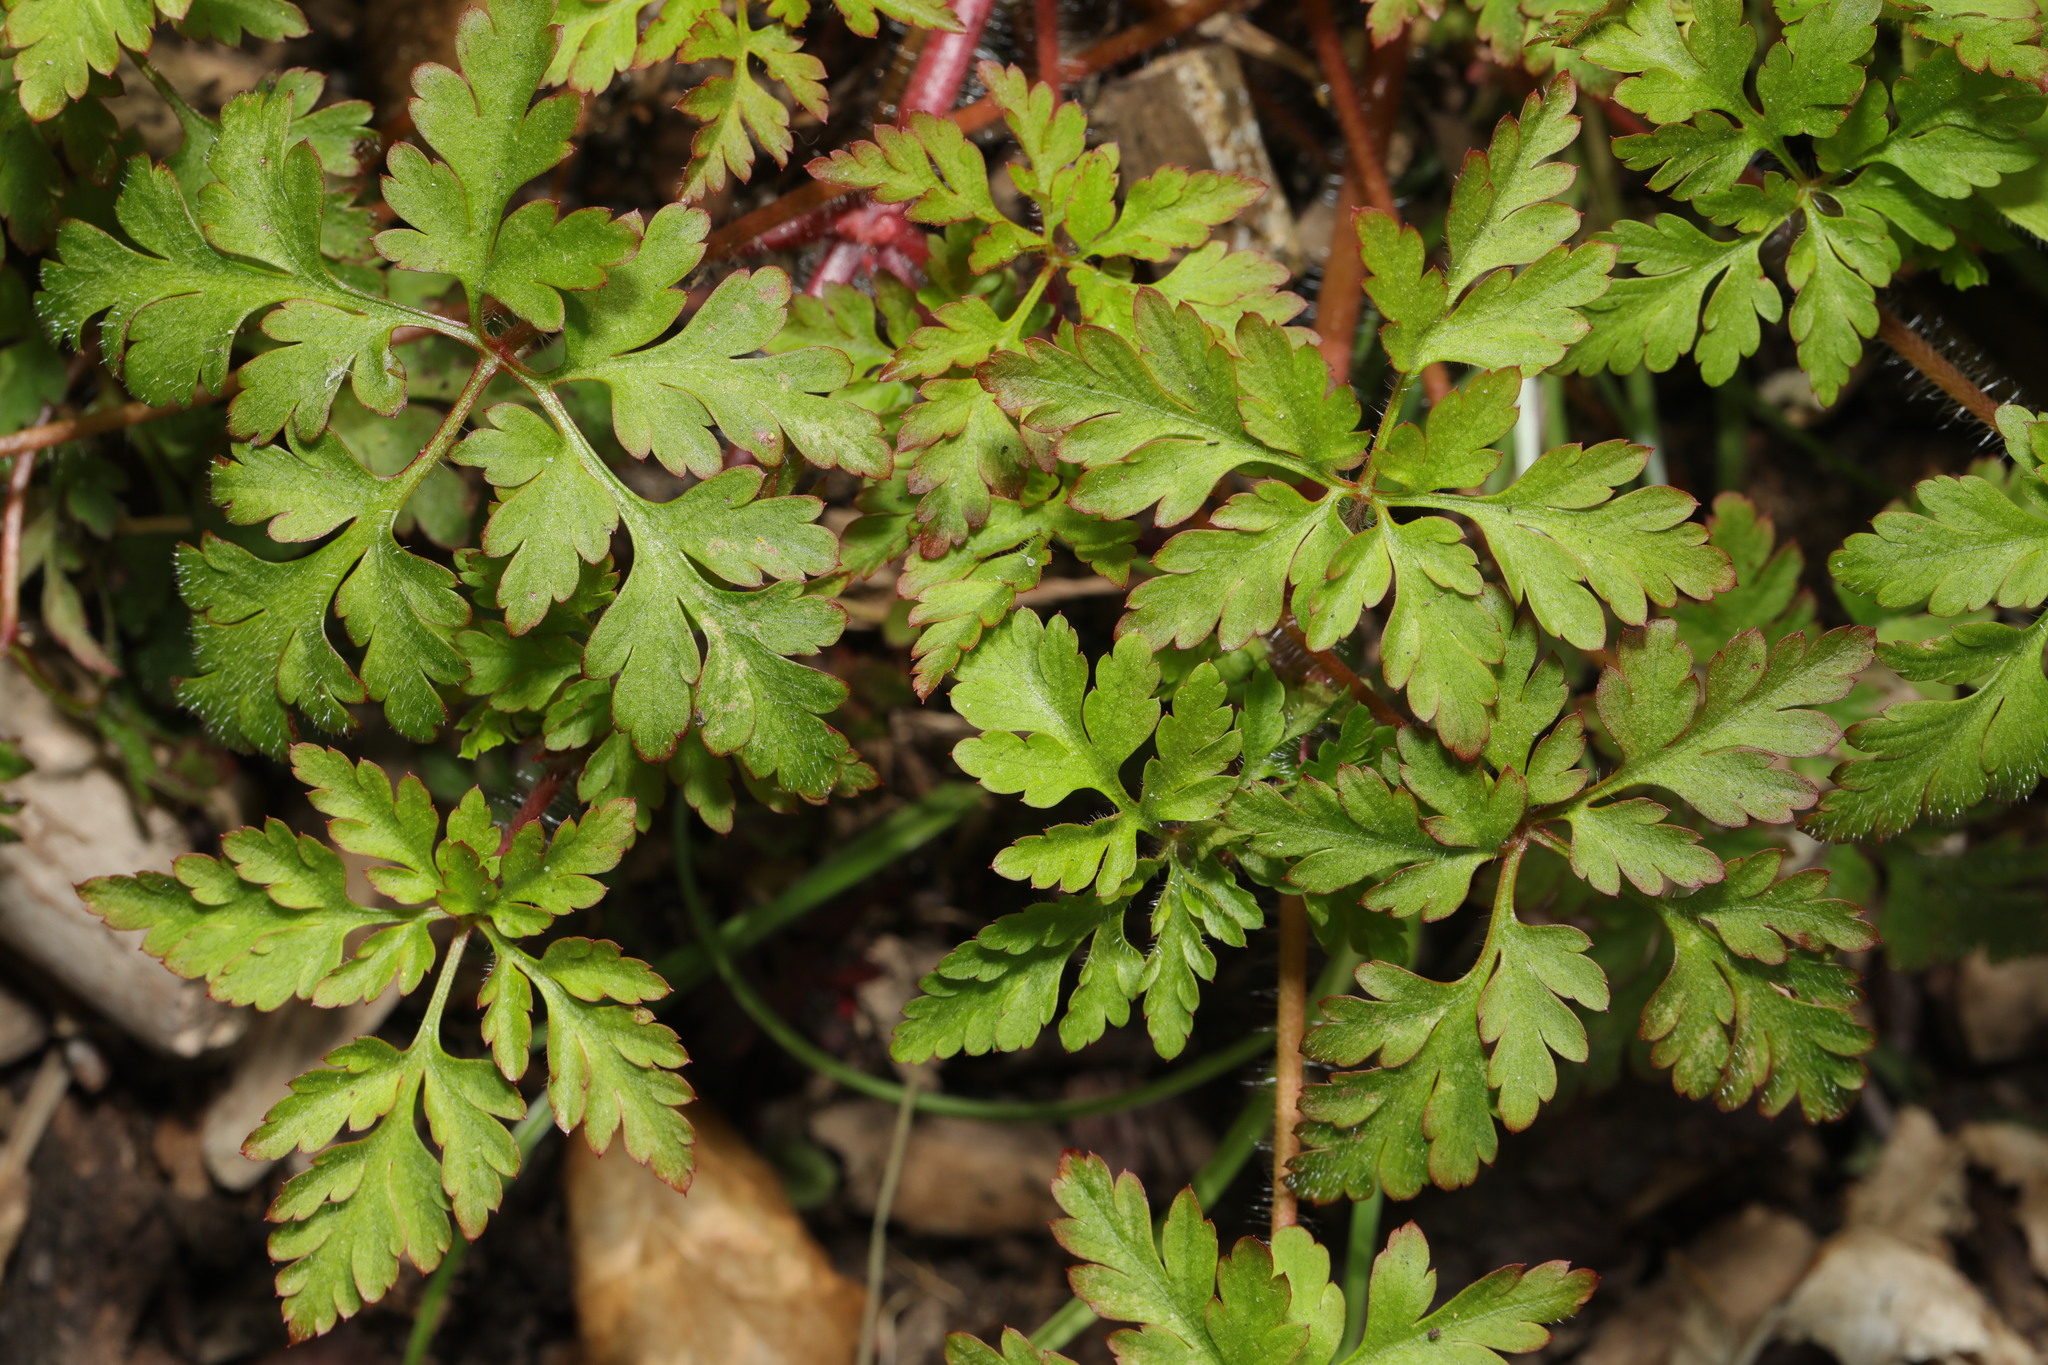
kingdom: Plantae
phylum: Tracheophyta
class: Magnoliopsida
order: Geraniales
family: Geraniaceae
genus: Geranium
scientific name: Geranium robertianum
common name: Herb-robert
